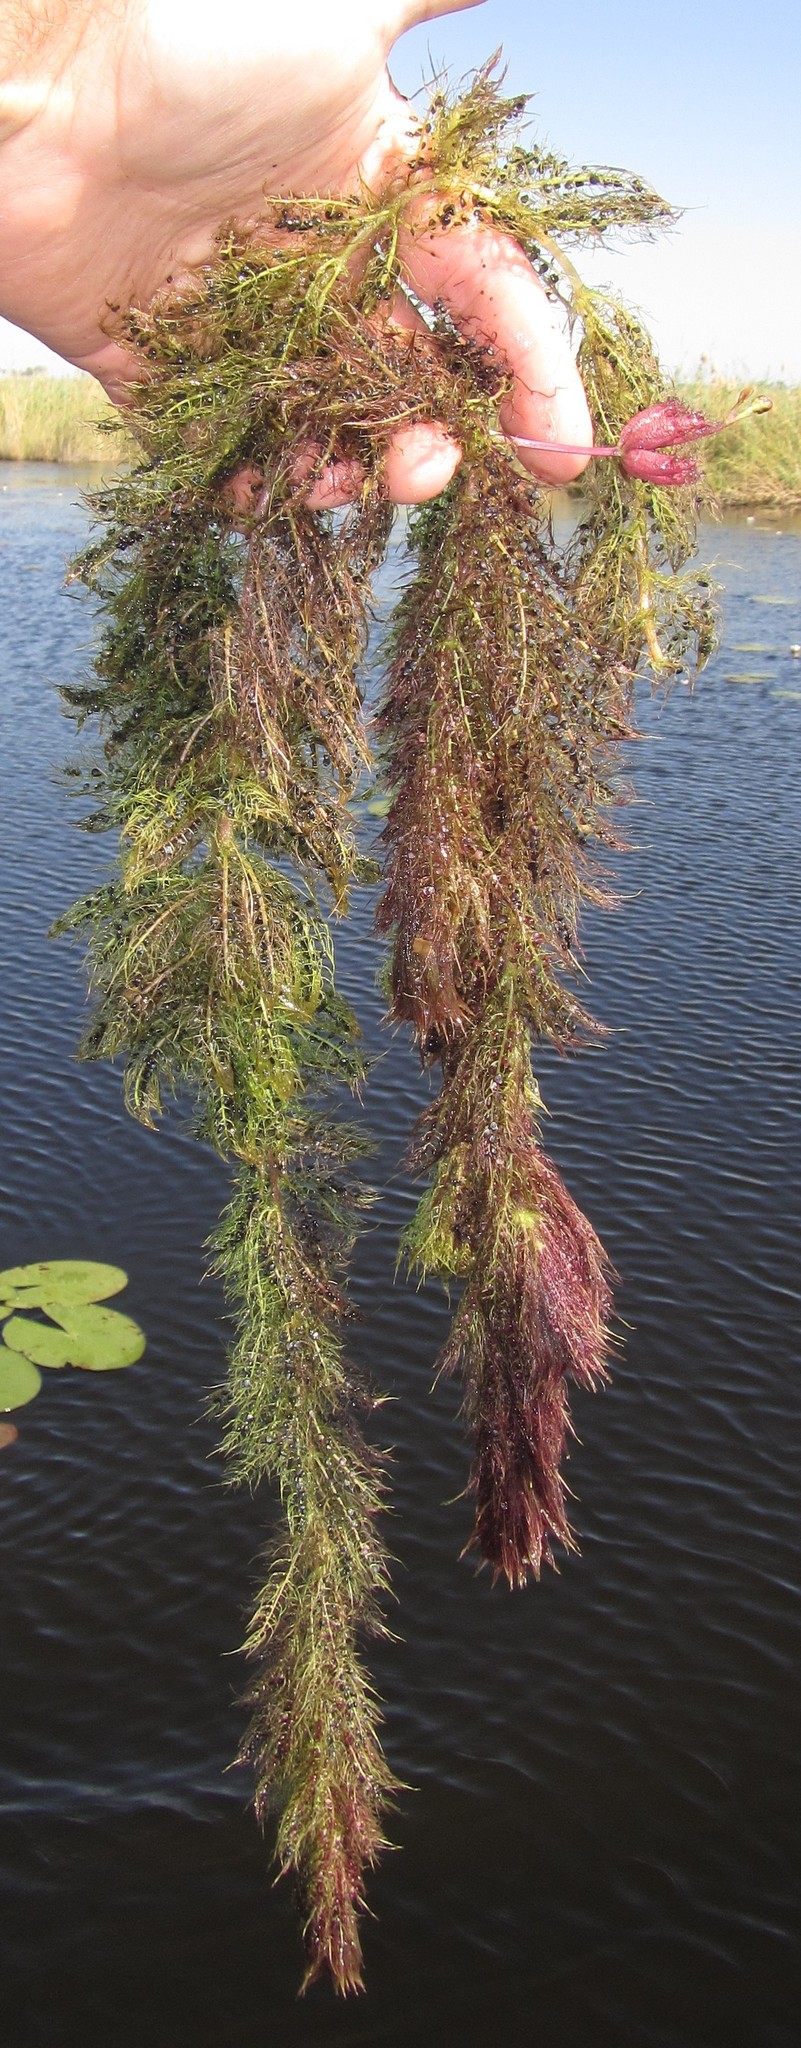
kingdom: Plantae
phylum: Tracheophyta
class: Magnoliopsida
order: Lamiales
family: Lentibulariaceae
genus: Utricularia
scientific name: Utricularia stellaris
